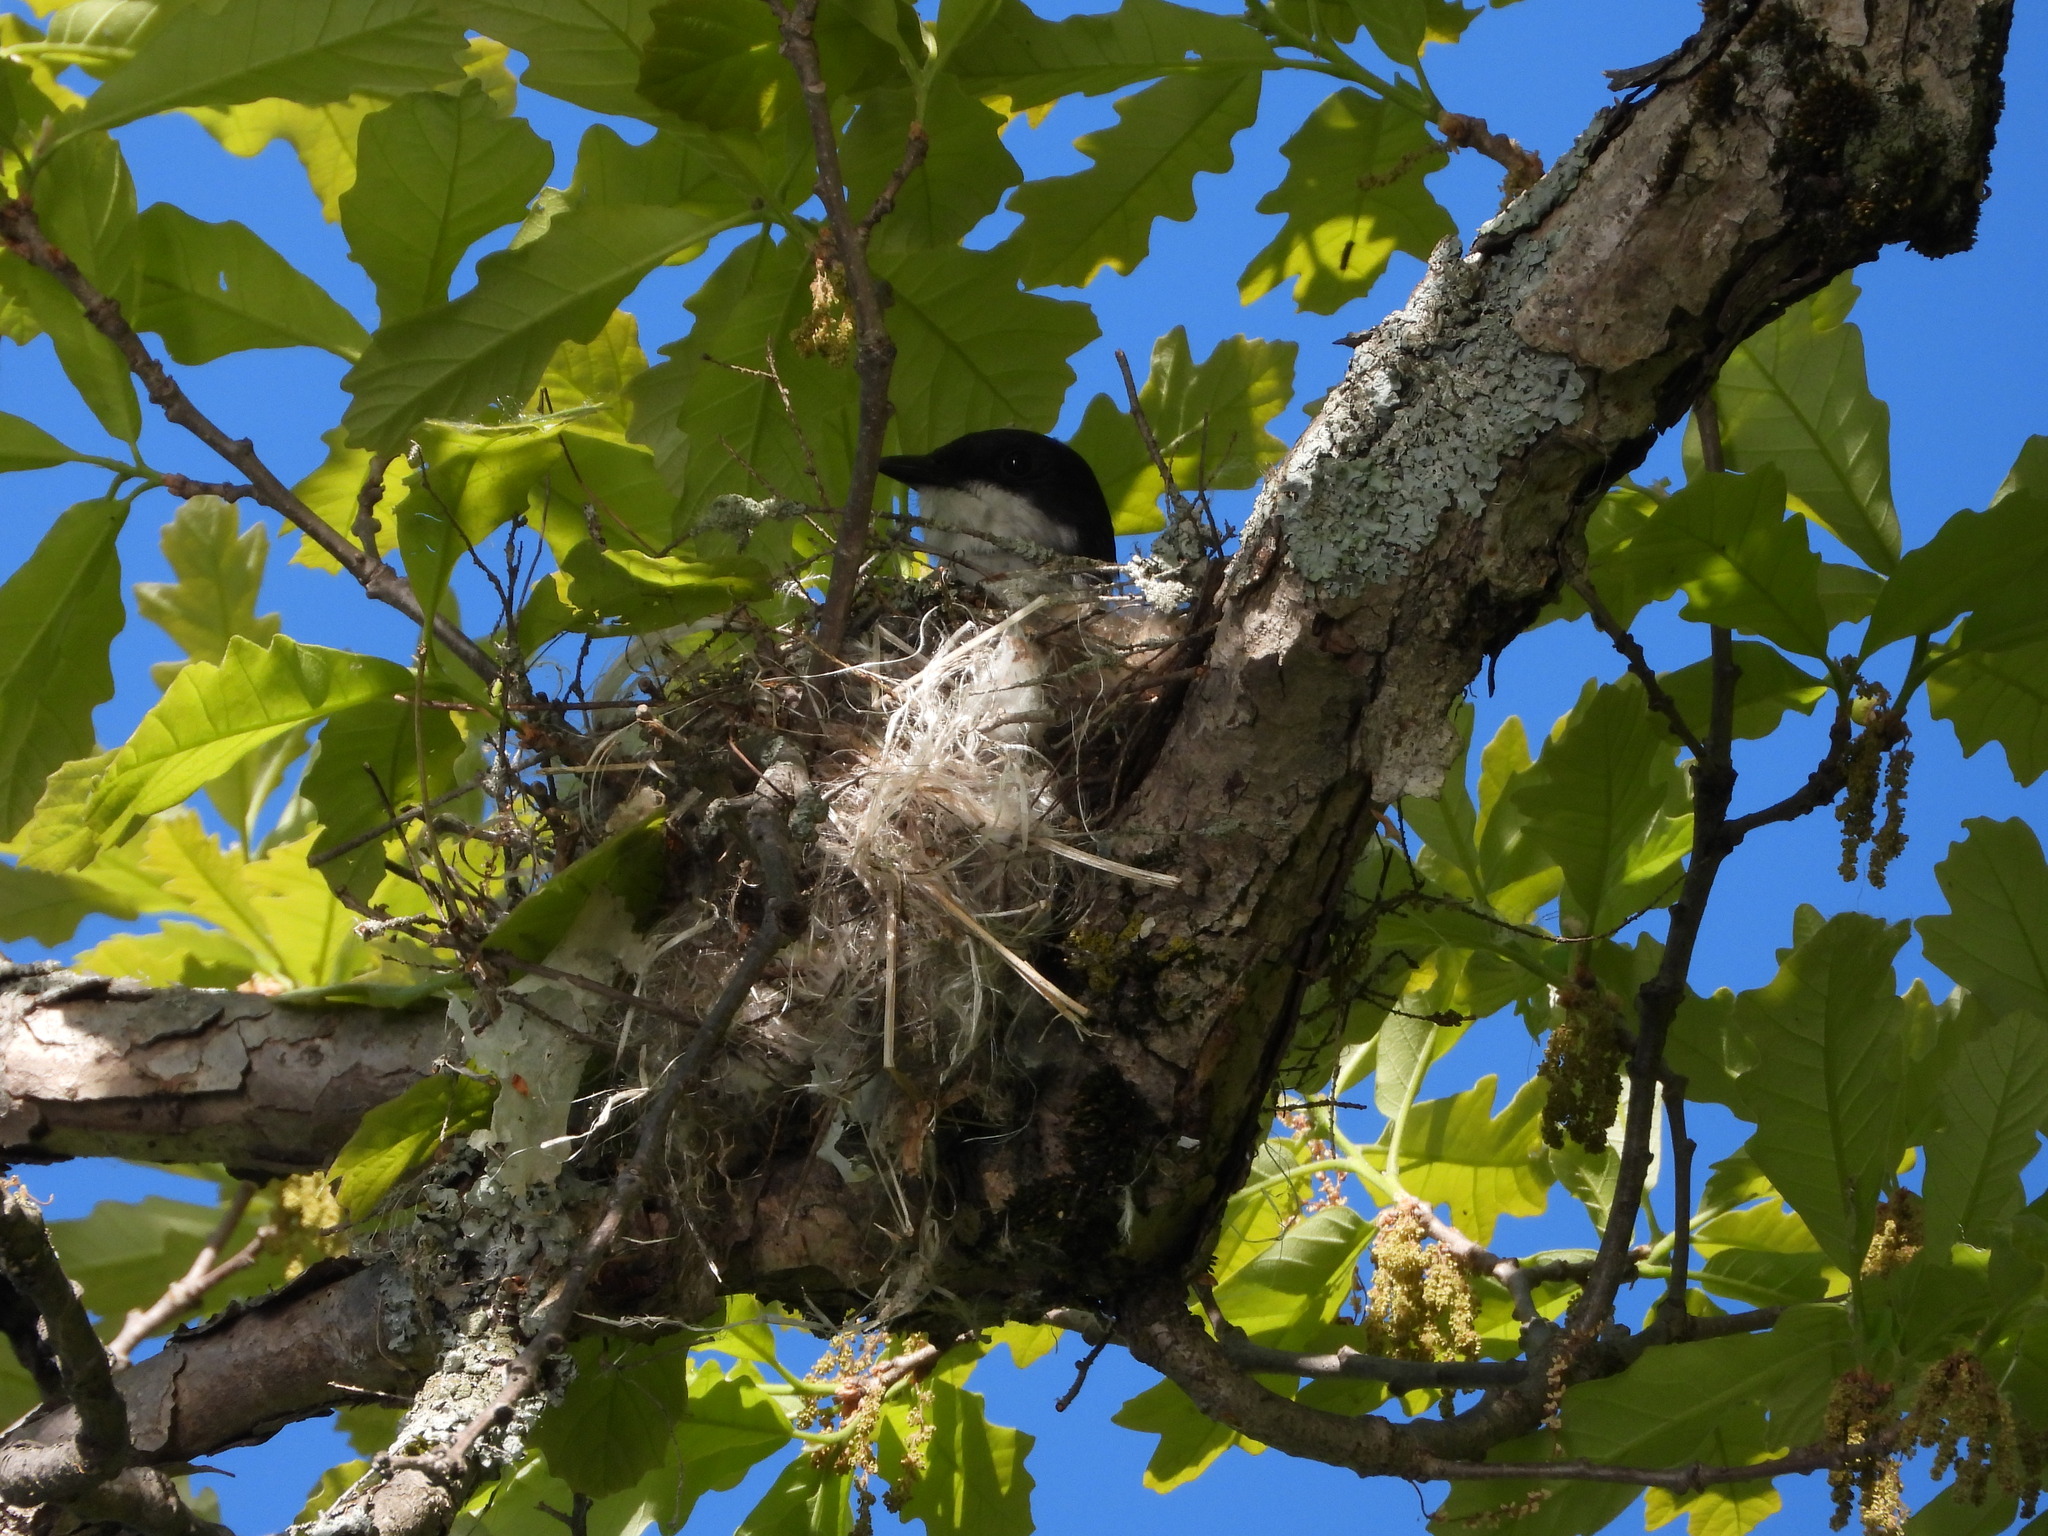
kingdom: Animalia
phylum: Chordata
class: Aves
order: Passeriformes
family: Tyrannidae
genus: Tyrannus
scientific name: Tyrannus tyrannus
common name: Eastern kingbird
